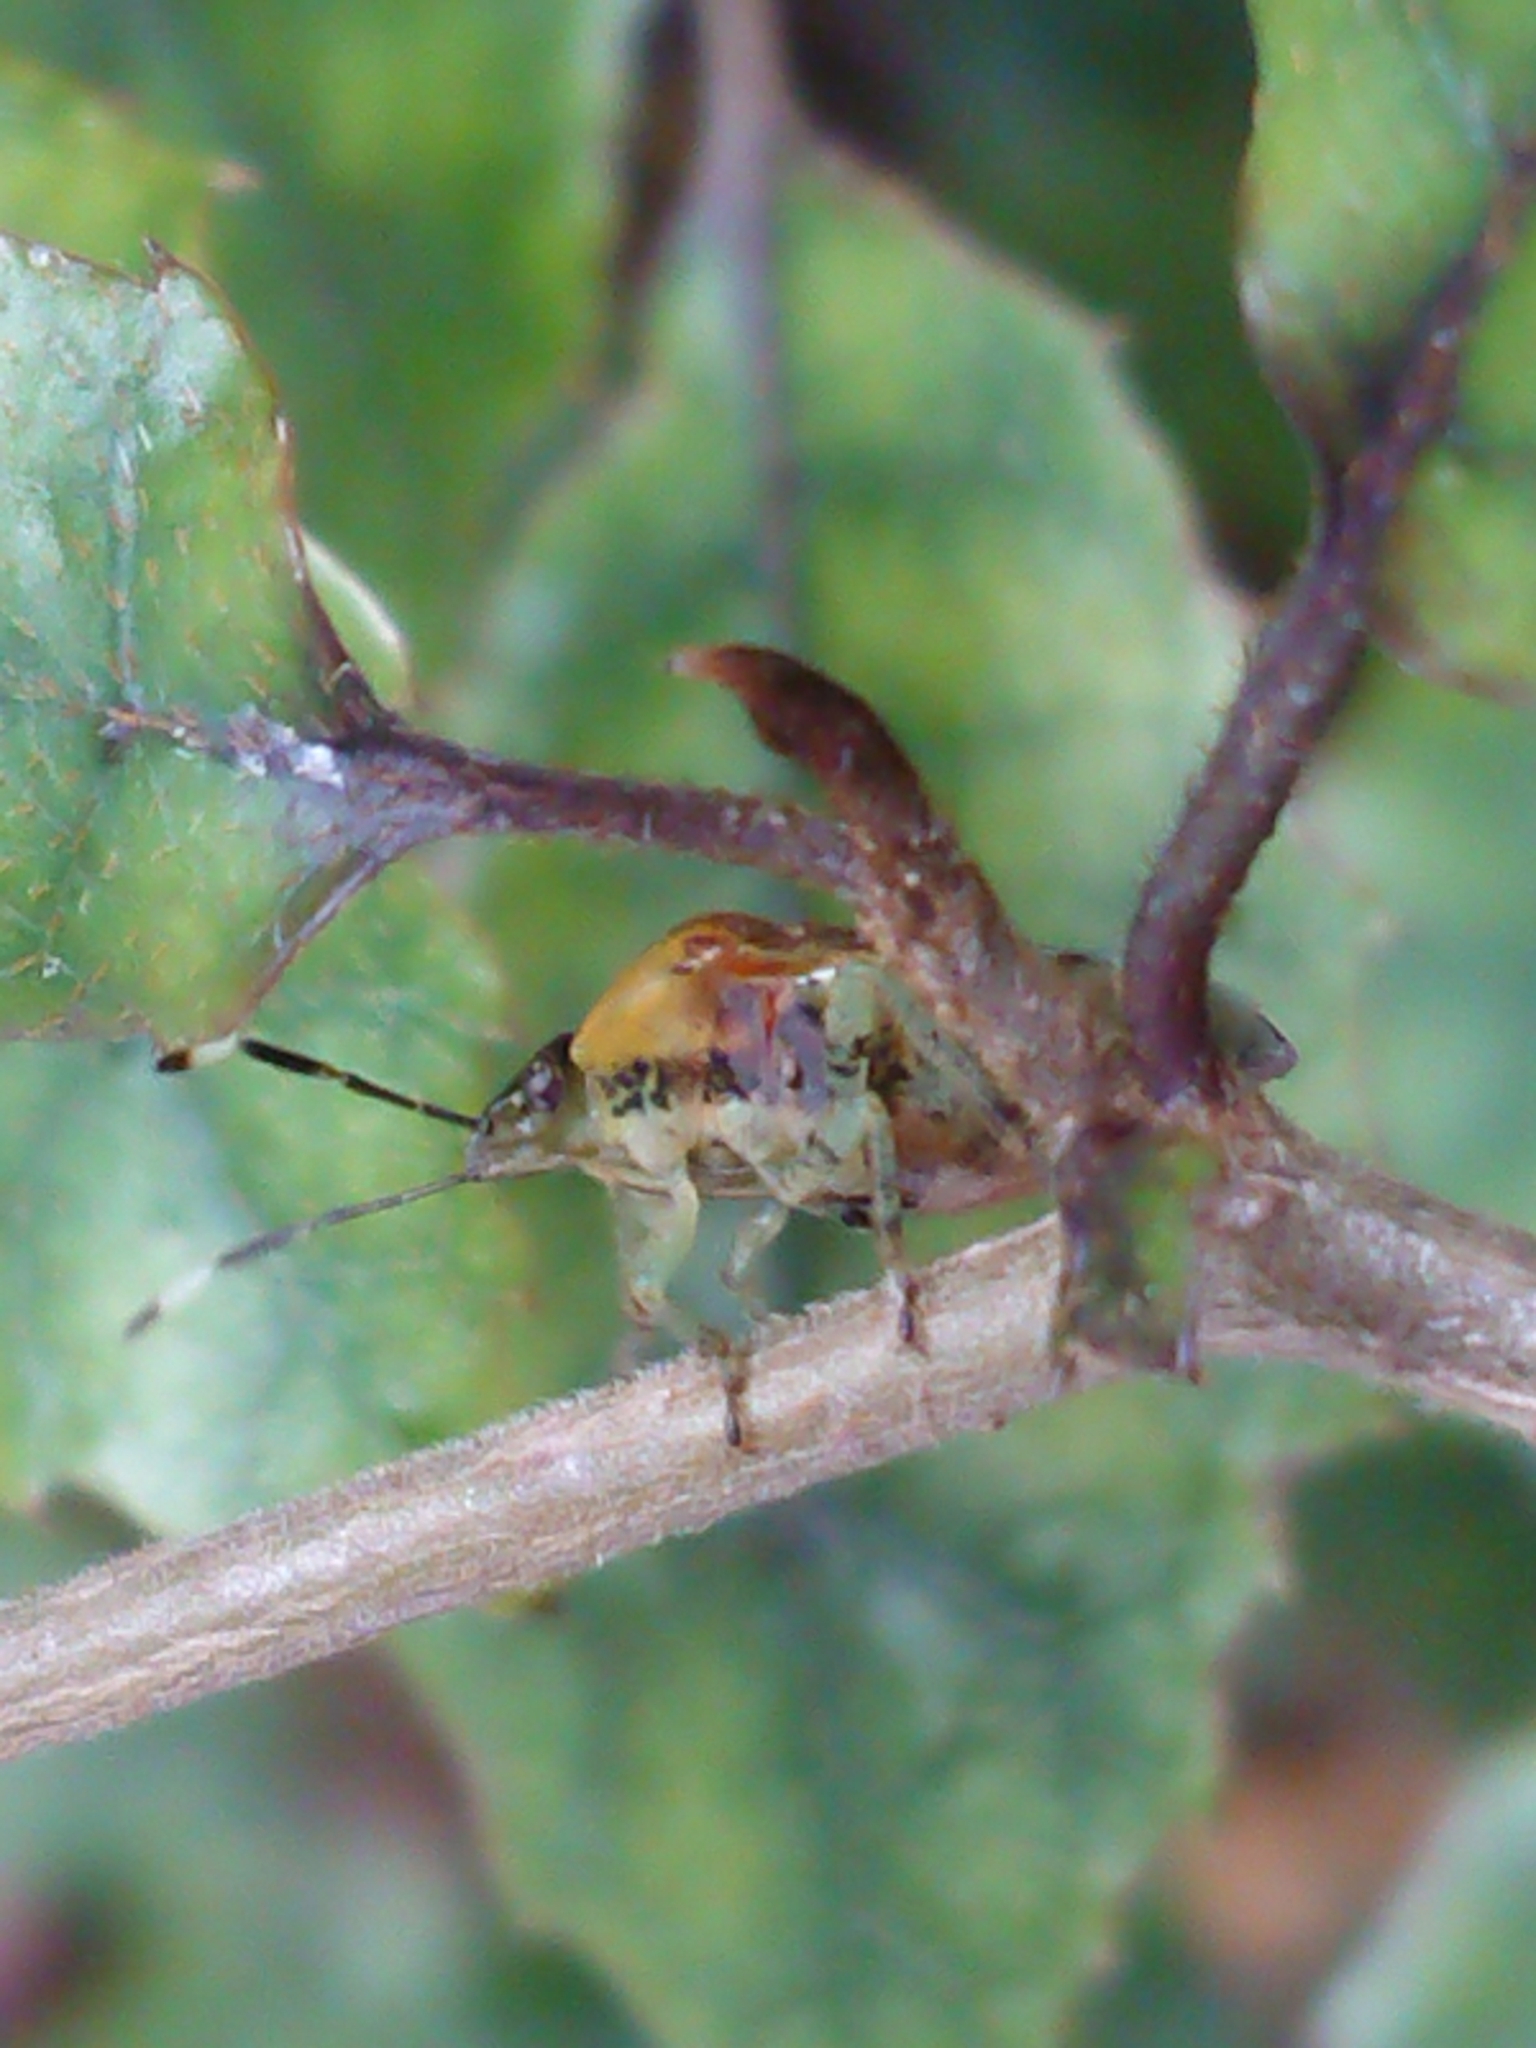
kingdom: Animalia
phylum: Arthropoda
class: Insecta
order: Hemiptera
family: Pentatomidae
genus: Monteithiella
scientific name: Monteithiella
